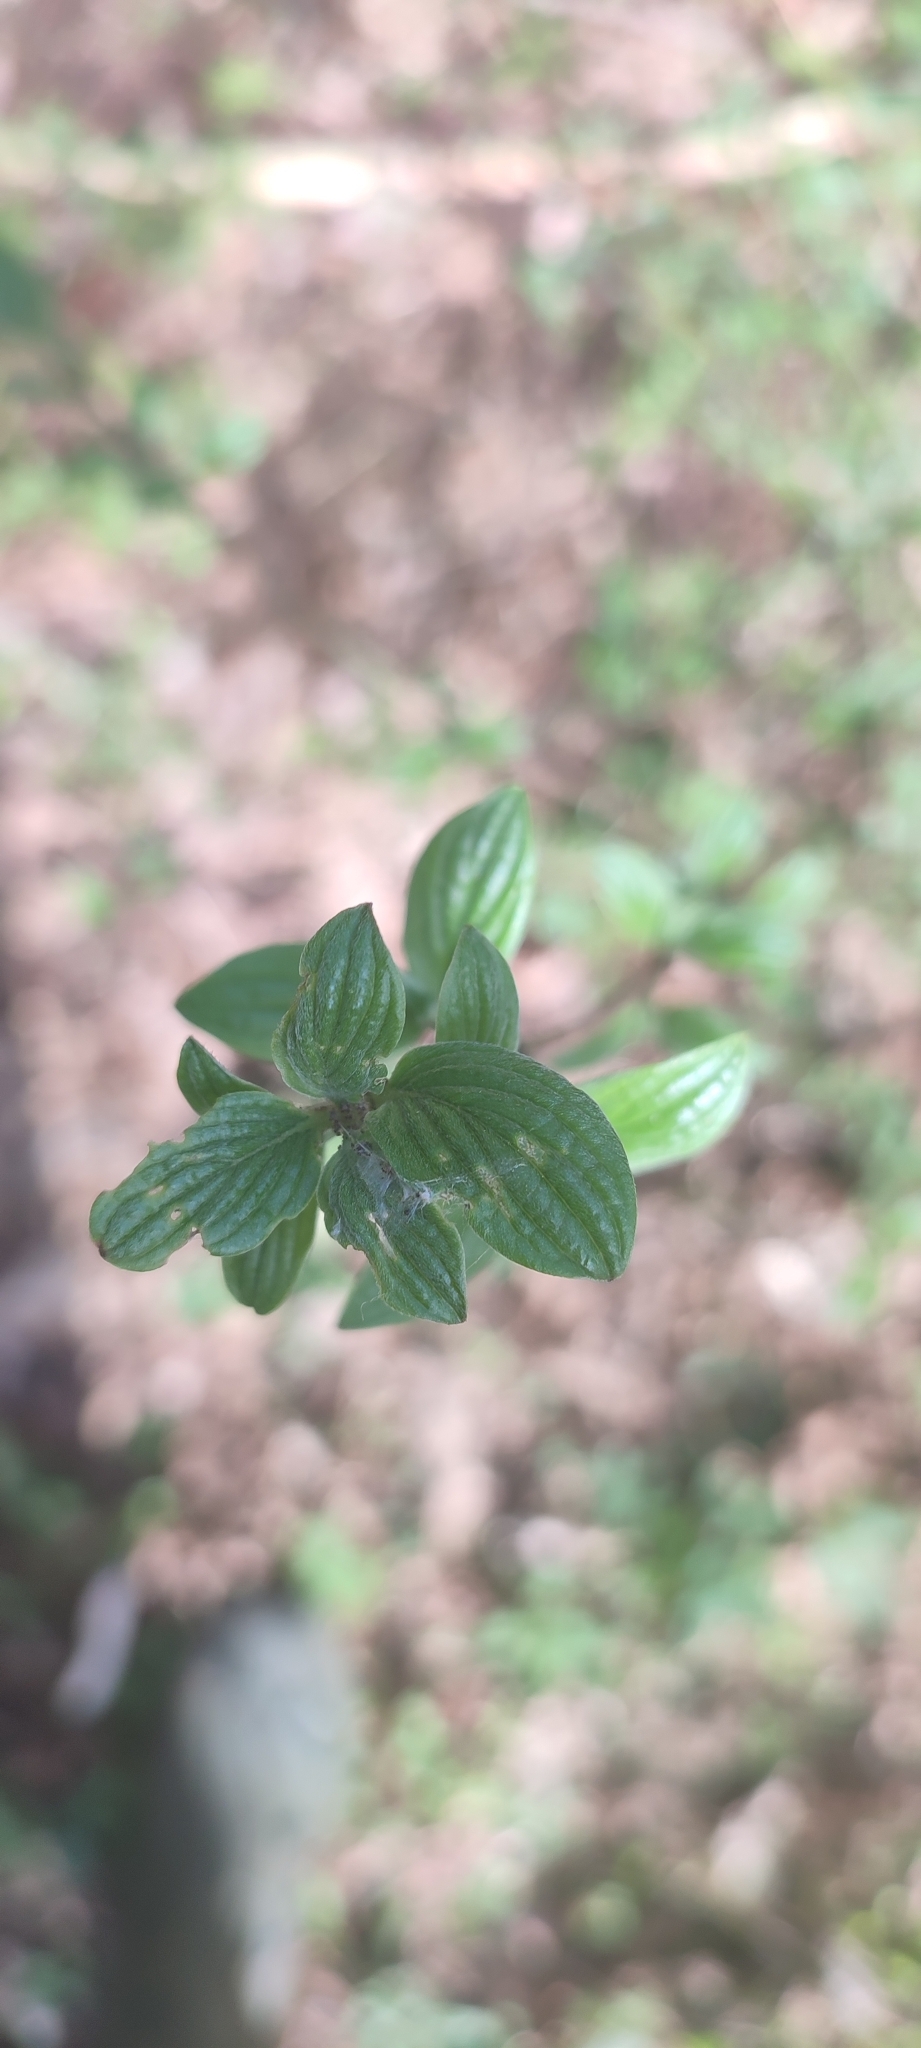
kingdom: Plantae
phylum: Tracheophyta
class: Magnoliopsida
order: Cornales
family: Cornaceae
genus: Cornus
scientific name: Cornus sanguinea
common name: Dogwood
